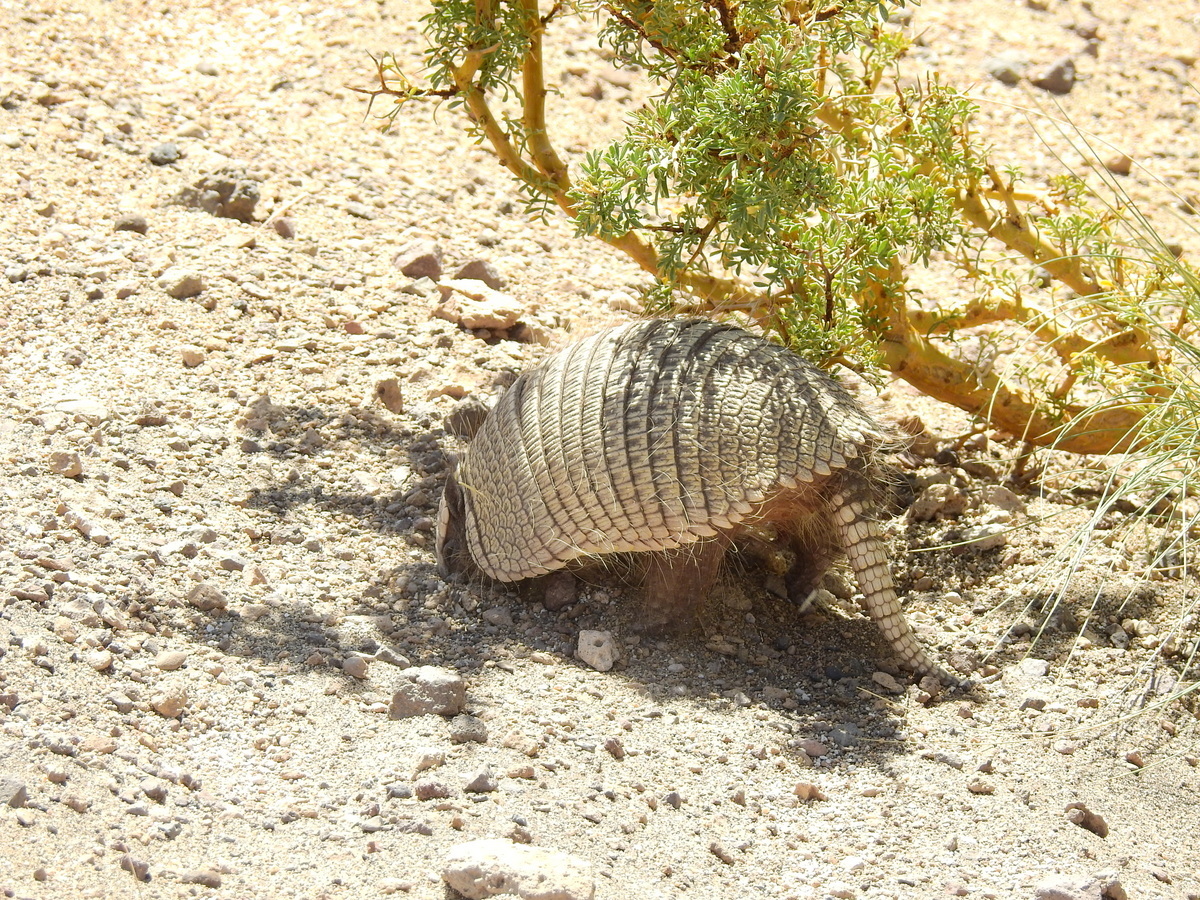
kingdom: Animalia
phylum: Chordata
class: Mammalia
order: Cingulata
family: Dasypodidae
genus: Zaedyus
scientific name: Zaedyus pichiy
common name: Pichi
